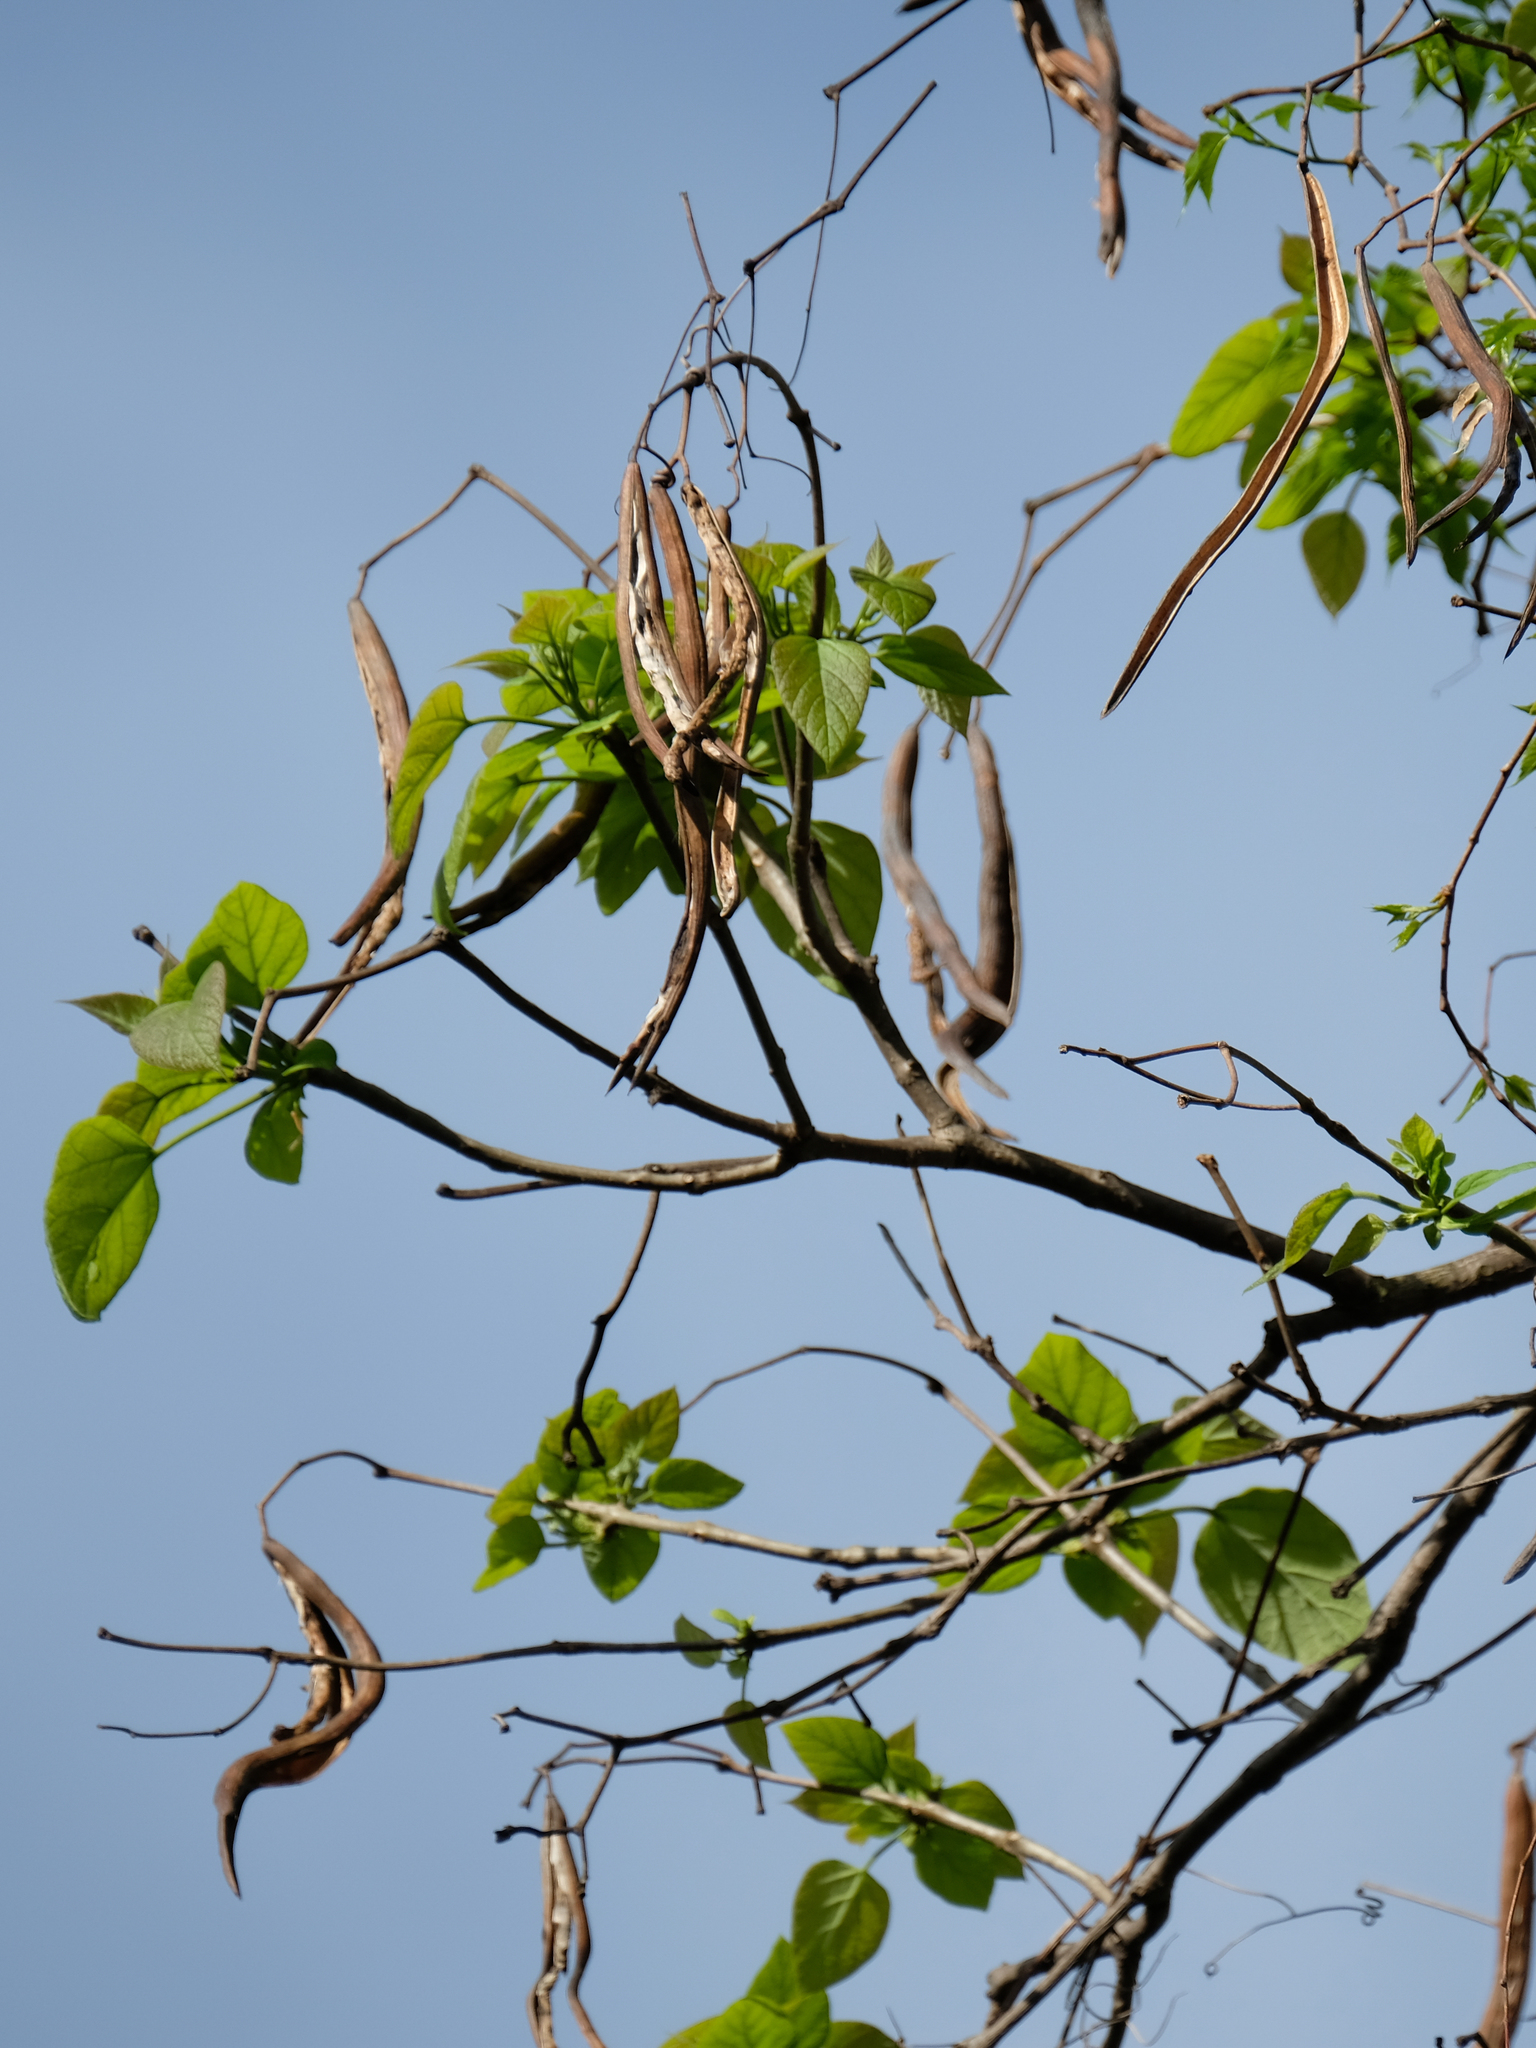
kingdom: Plantae
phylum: Tracheophyta
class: Magnoliopsida
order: Lamiales
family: Bignoniaceae
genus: Catalpa
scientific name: Catalpa speciosa
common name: Northern catalpa
